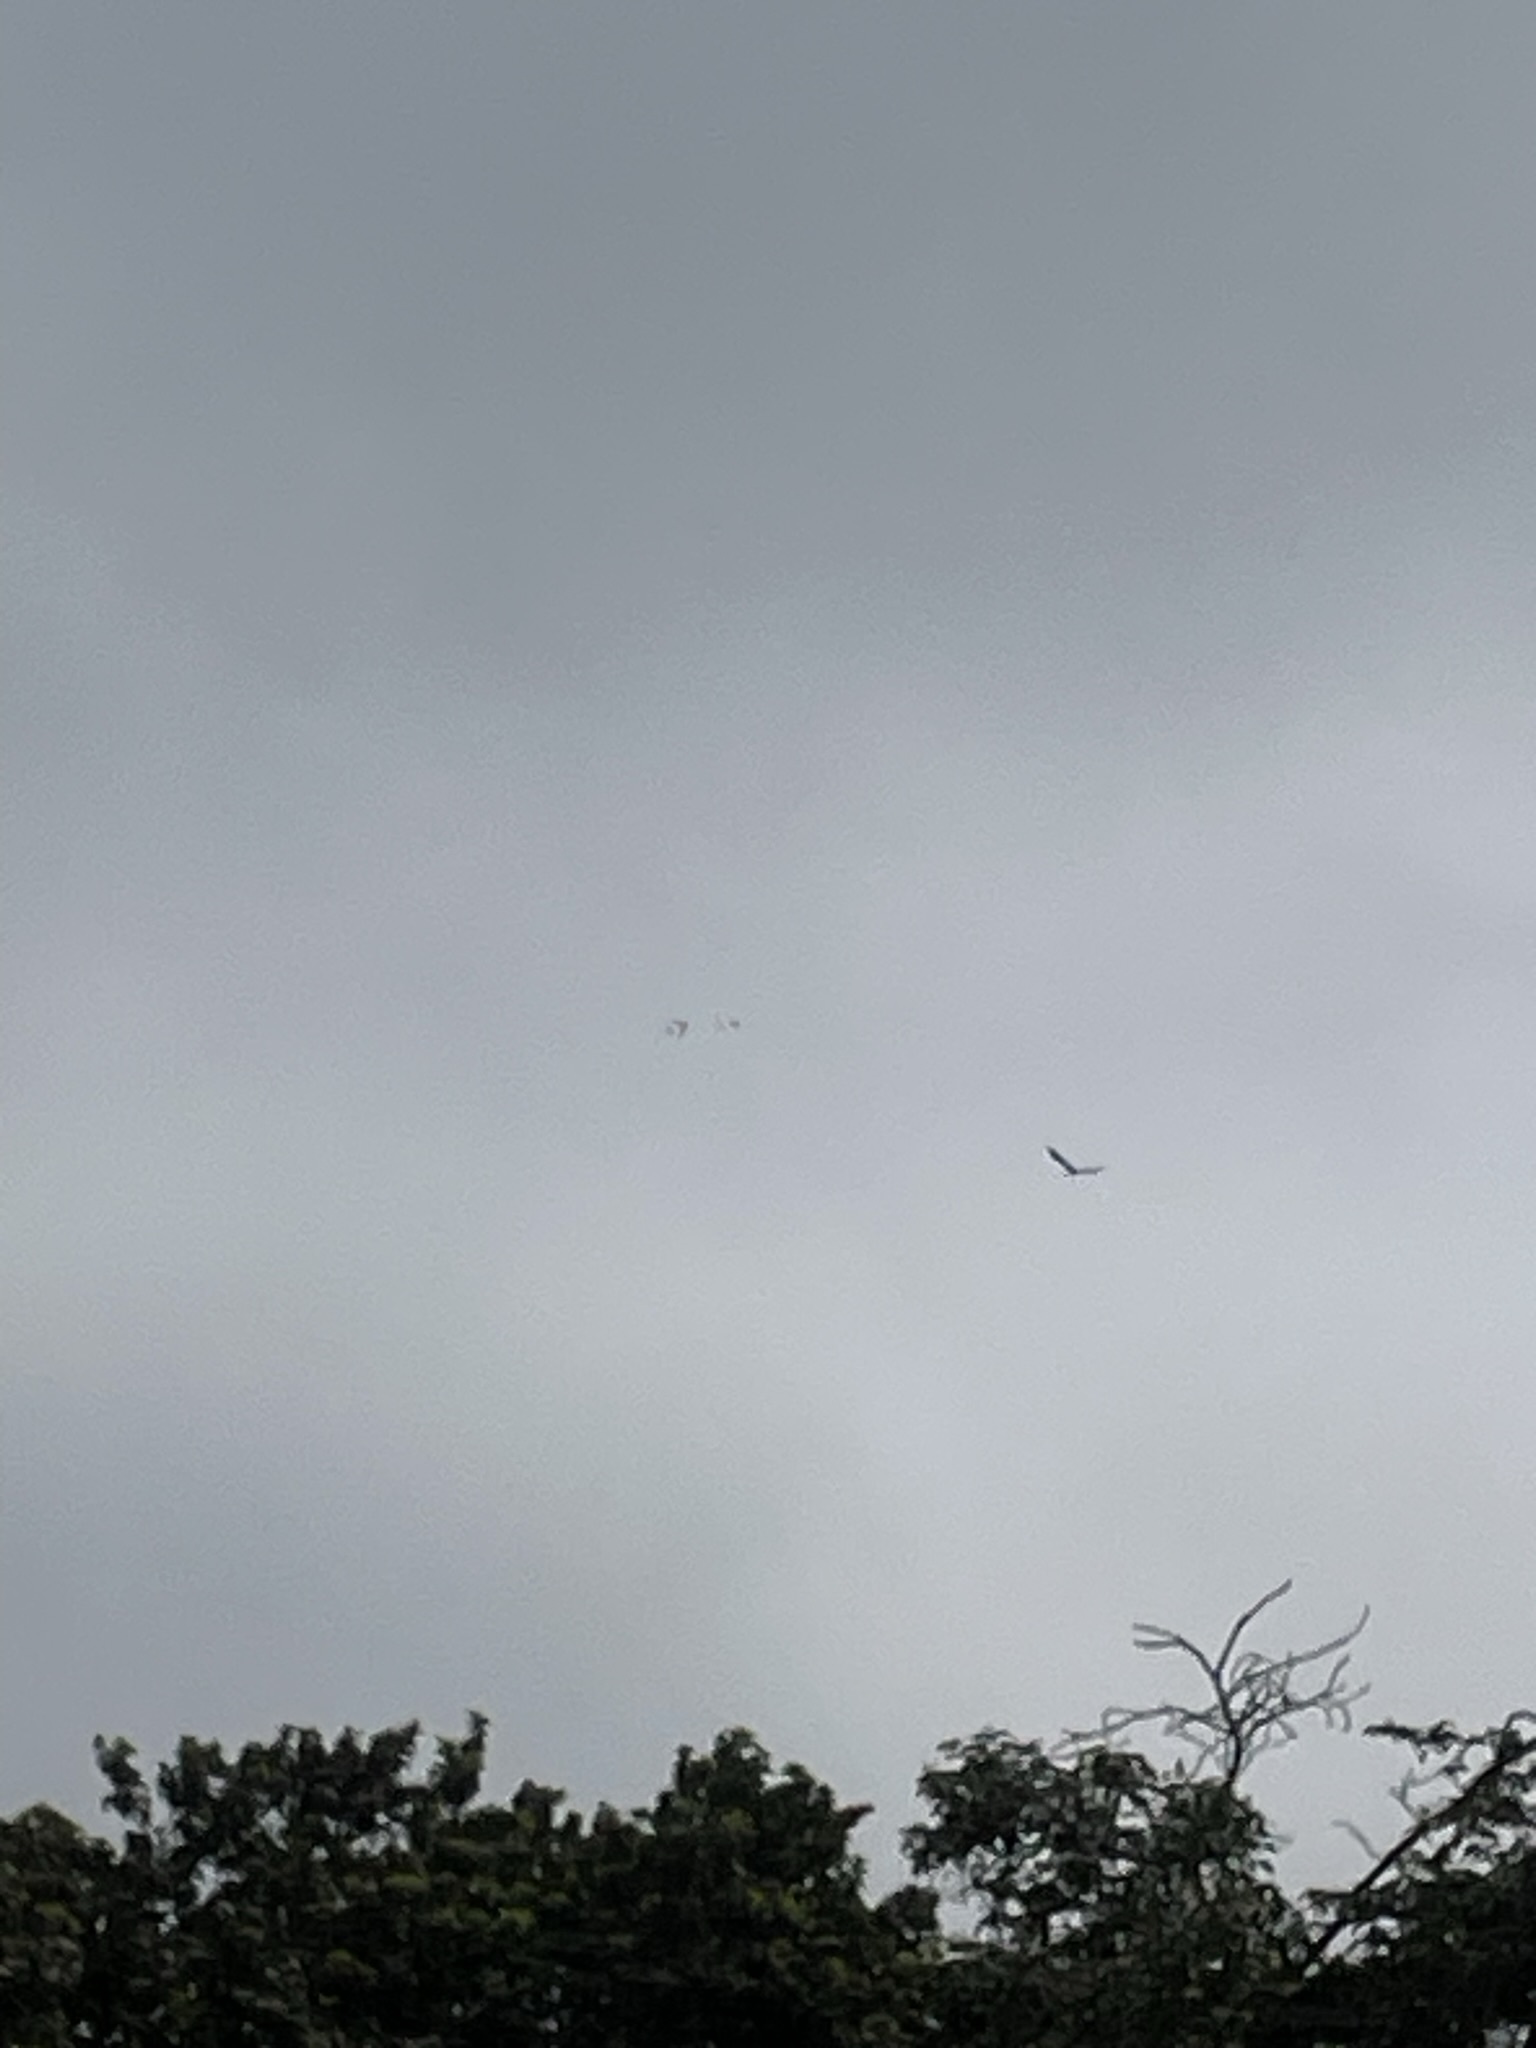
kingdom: Animalia
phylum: Chordata
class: Aves
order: Accipitriformes
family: Accipitridae
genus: Parabuteo
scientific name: Parabuteo unicinctus
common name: Harris's hawk
